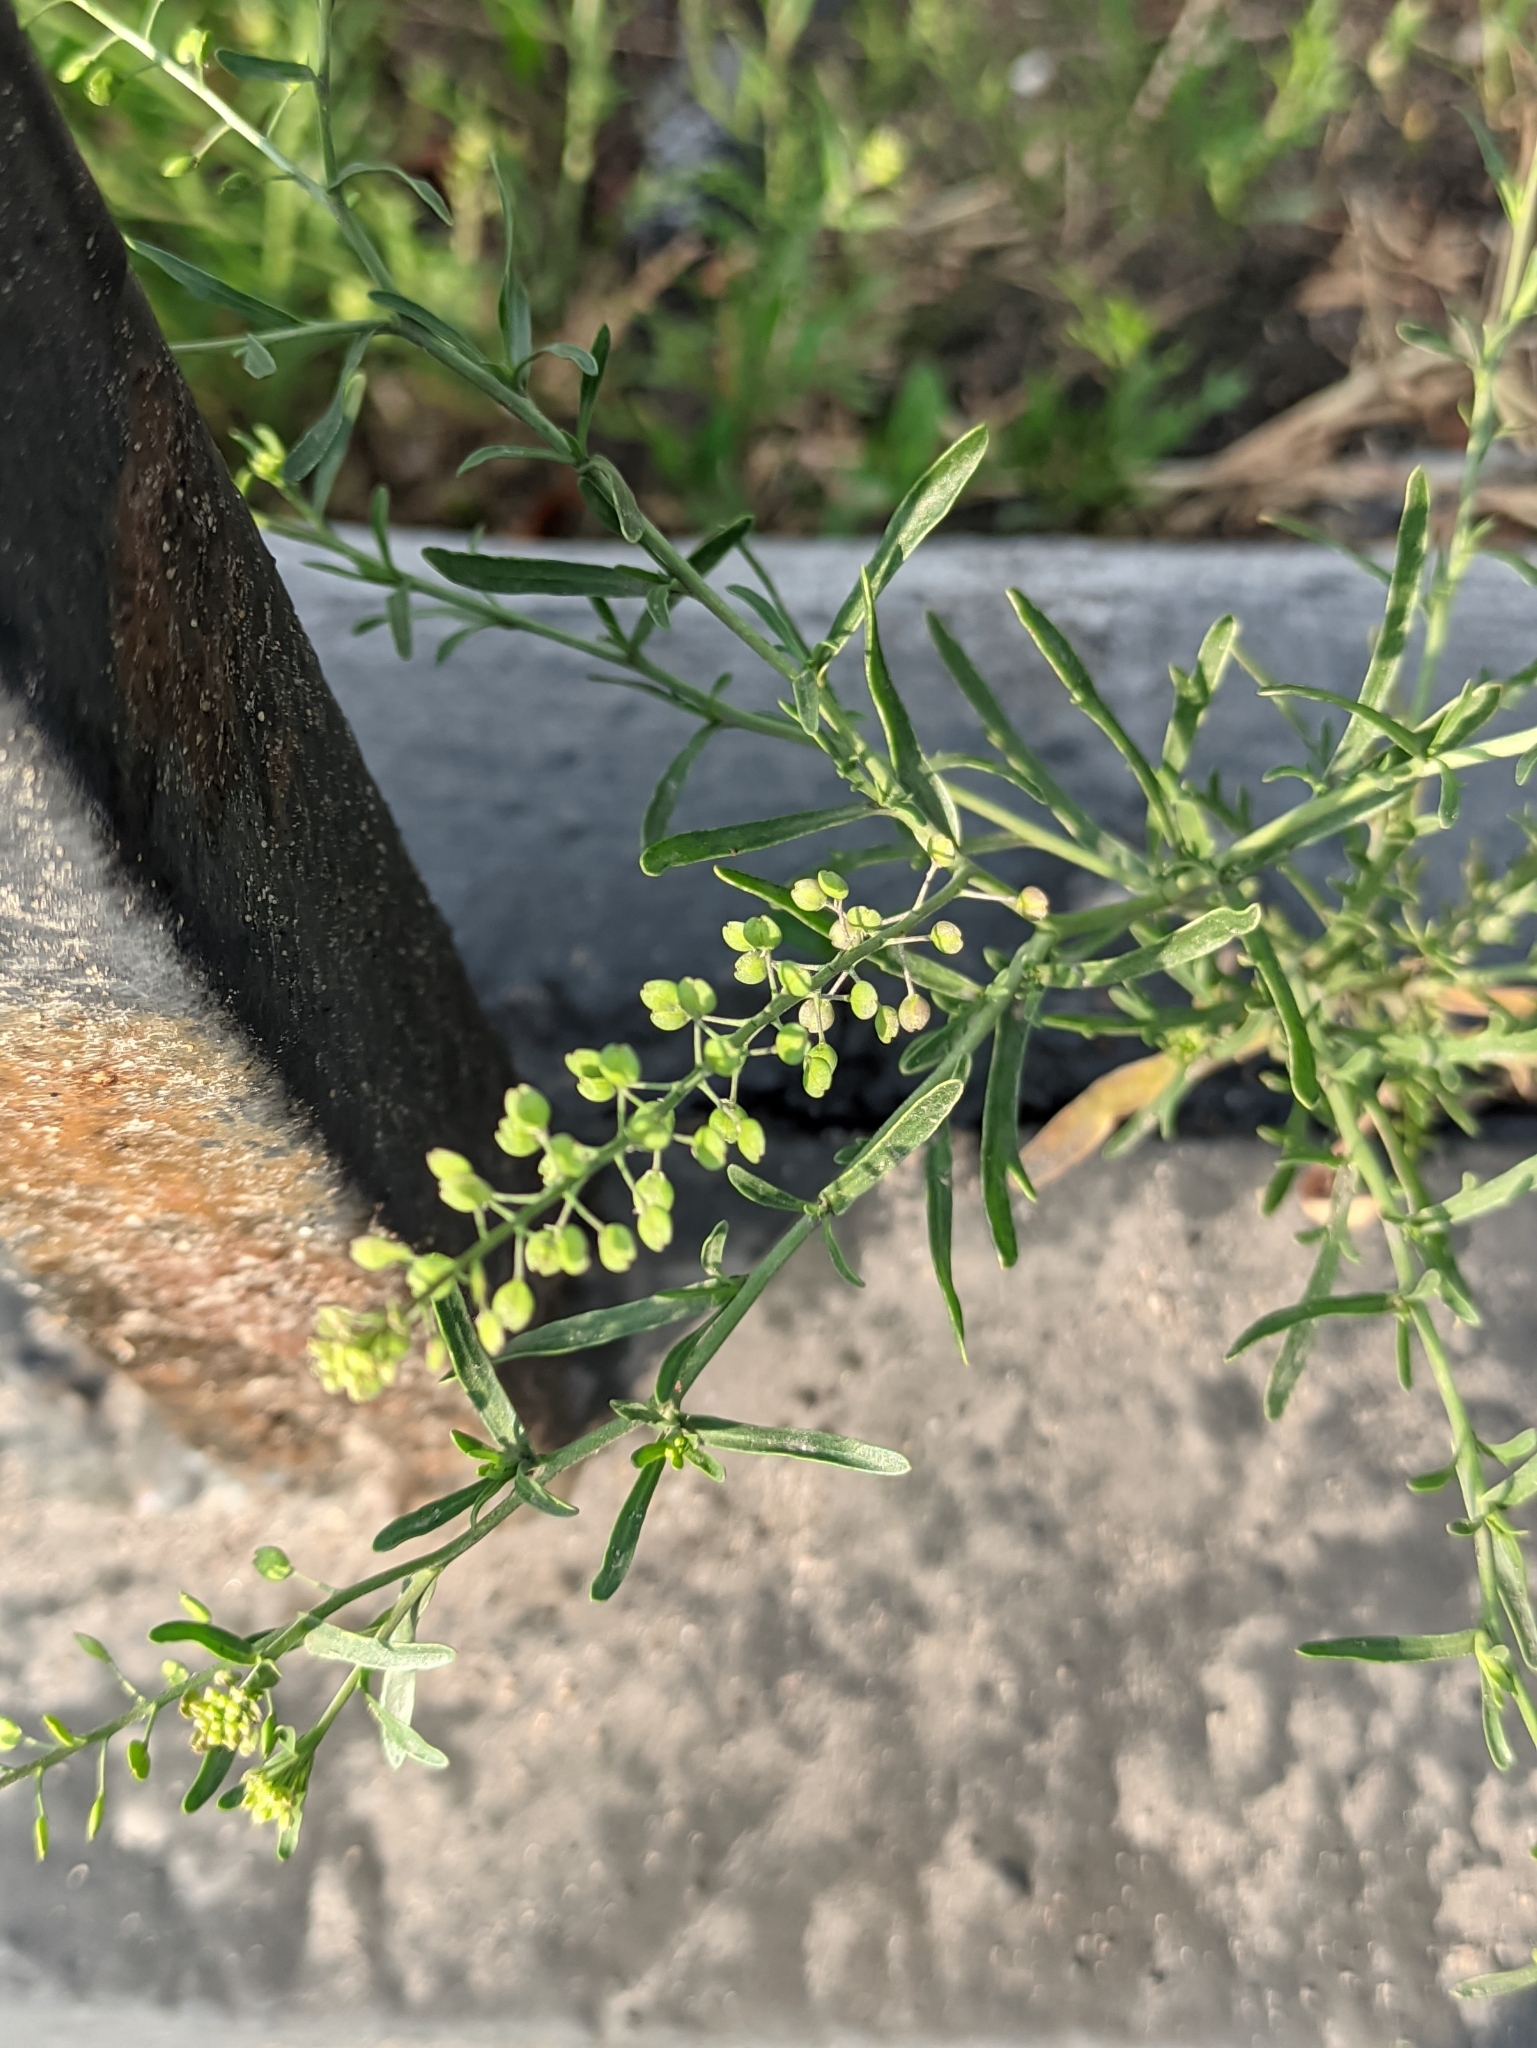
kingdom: Plantae
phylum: Tracheophyta
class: Magnoliopsida
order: Brassicales
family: Brassicaceae
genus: Lepidium
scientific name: Lepidium ruderale
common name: Narrow-leaved pepperwort
